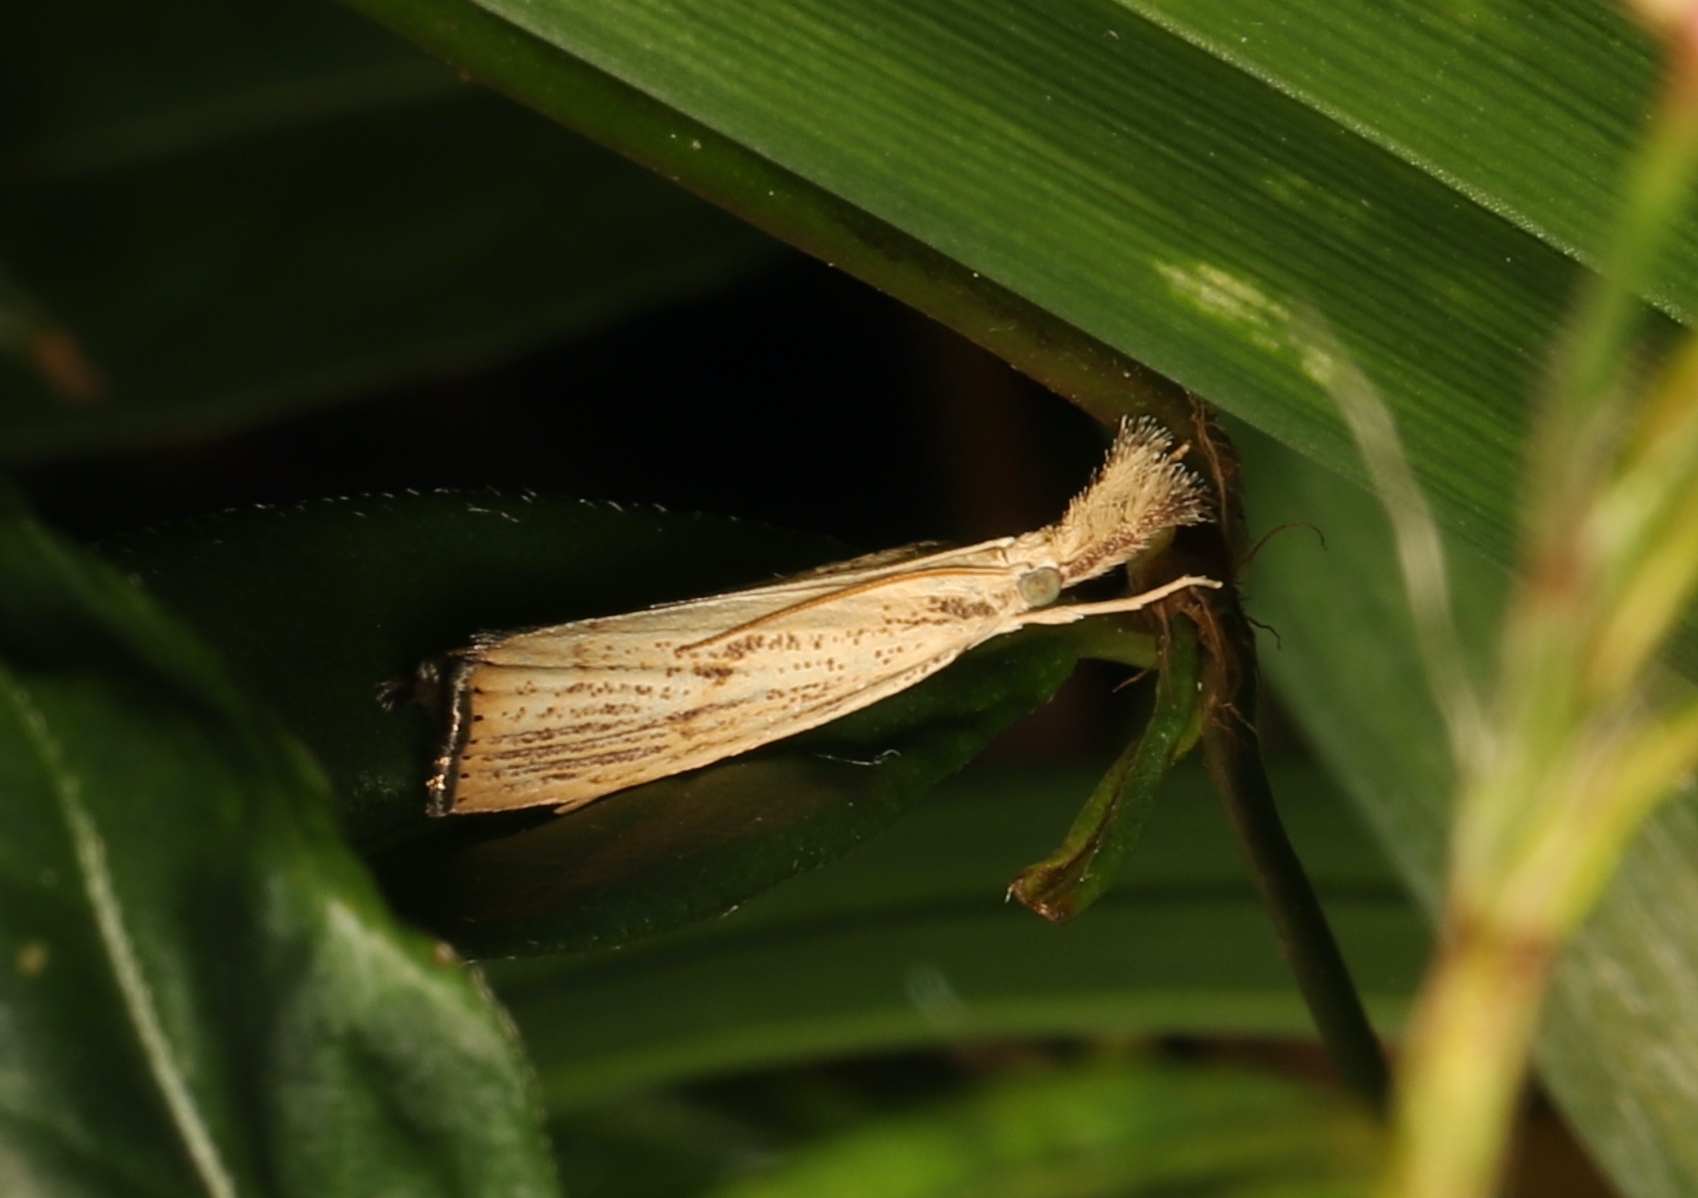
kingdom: Animalia
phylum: Arthropoda
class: Insecta
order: Lepidoptera
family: Crambidae
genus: Agriphila
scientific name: Agriphila ruricolellus
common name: Lesser vagabond sod webworm
